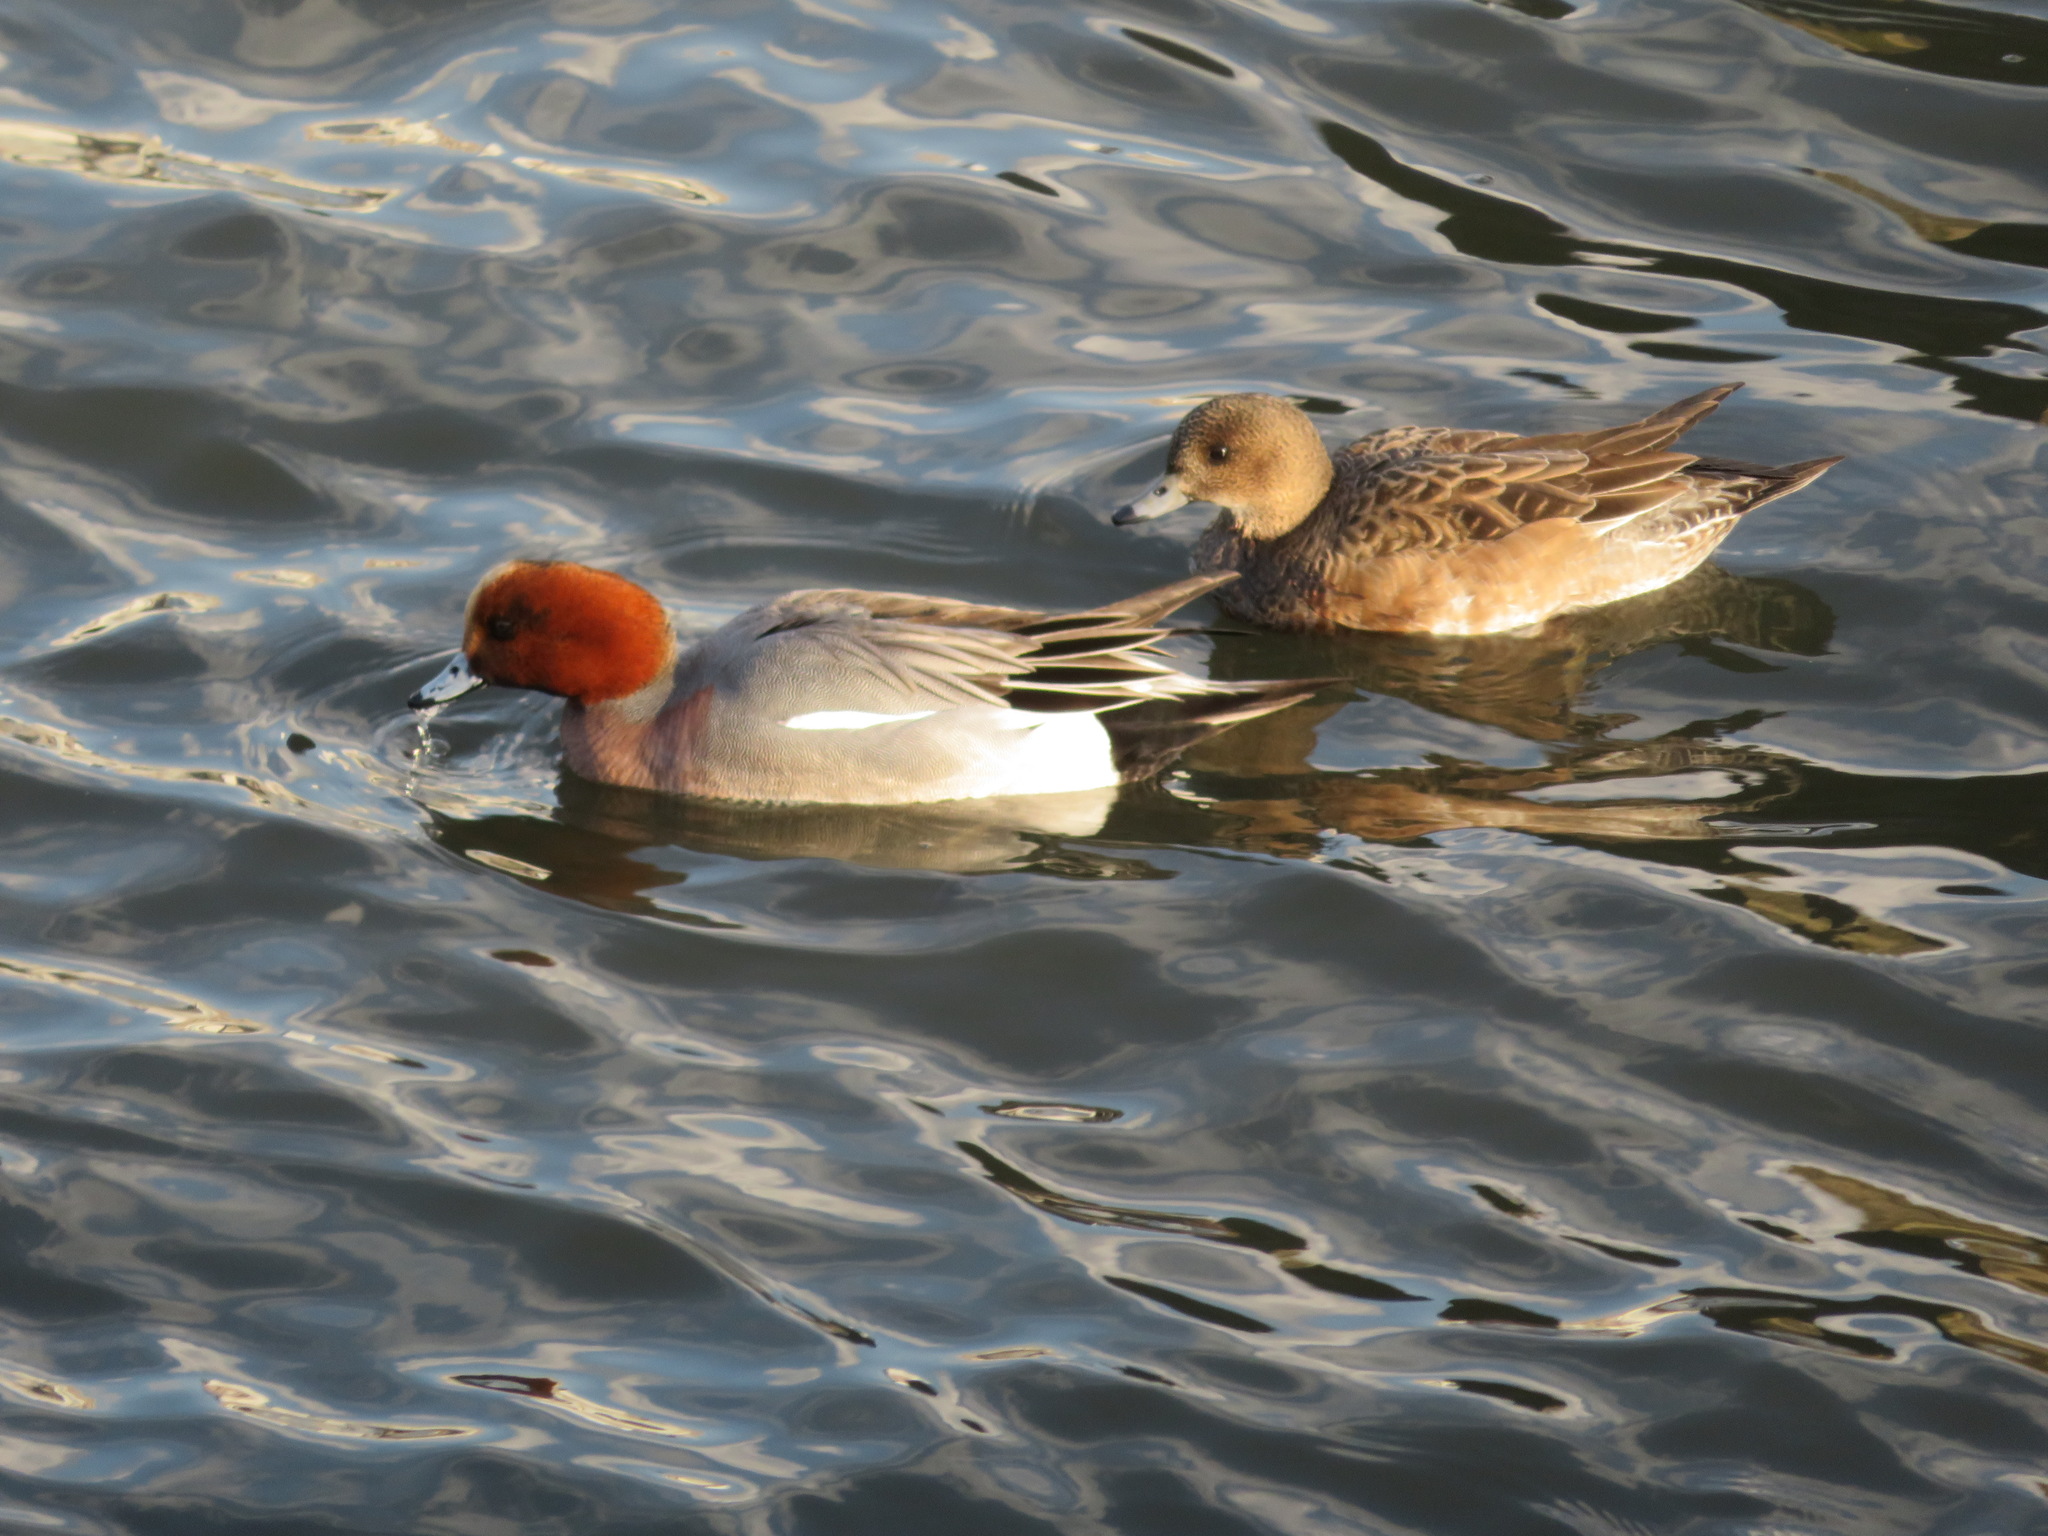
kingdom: Animalia
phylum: Chordata
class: Aves
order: Anseriformes
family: Anatidae
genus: Mareca
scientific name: Mareca penelope
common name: Eurasian wigeon
